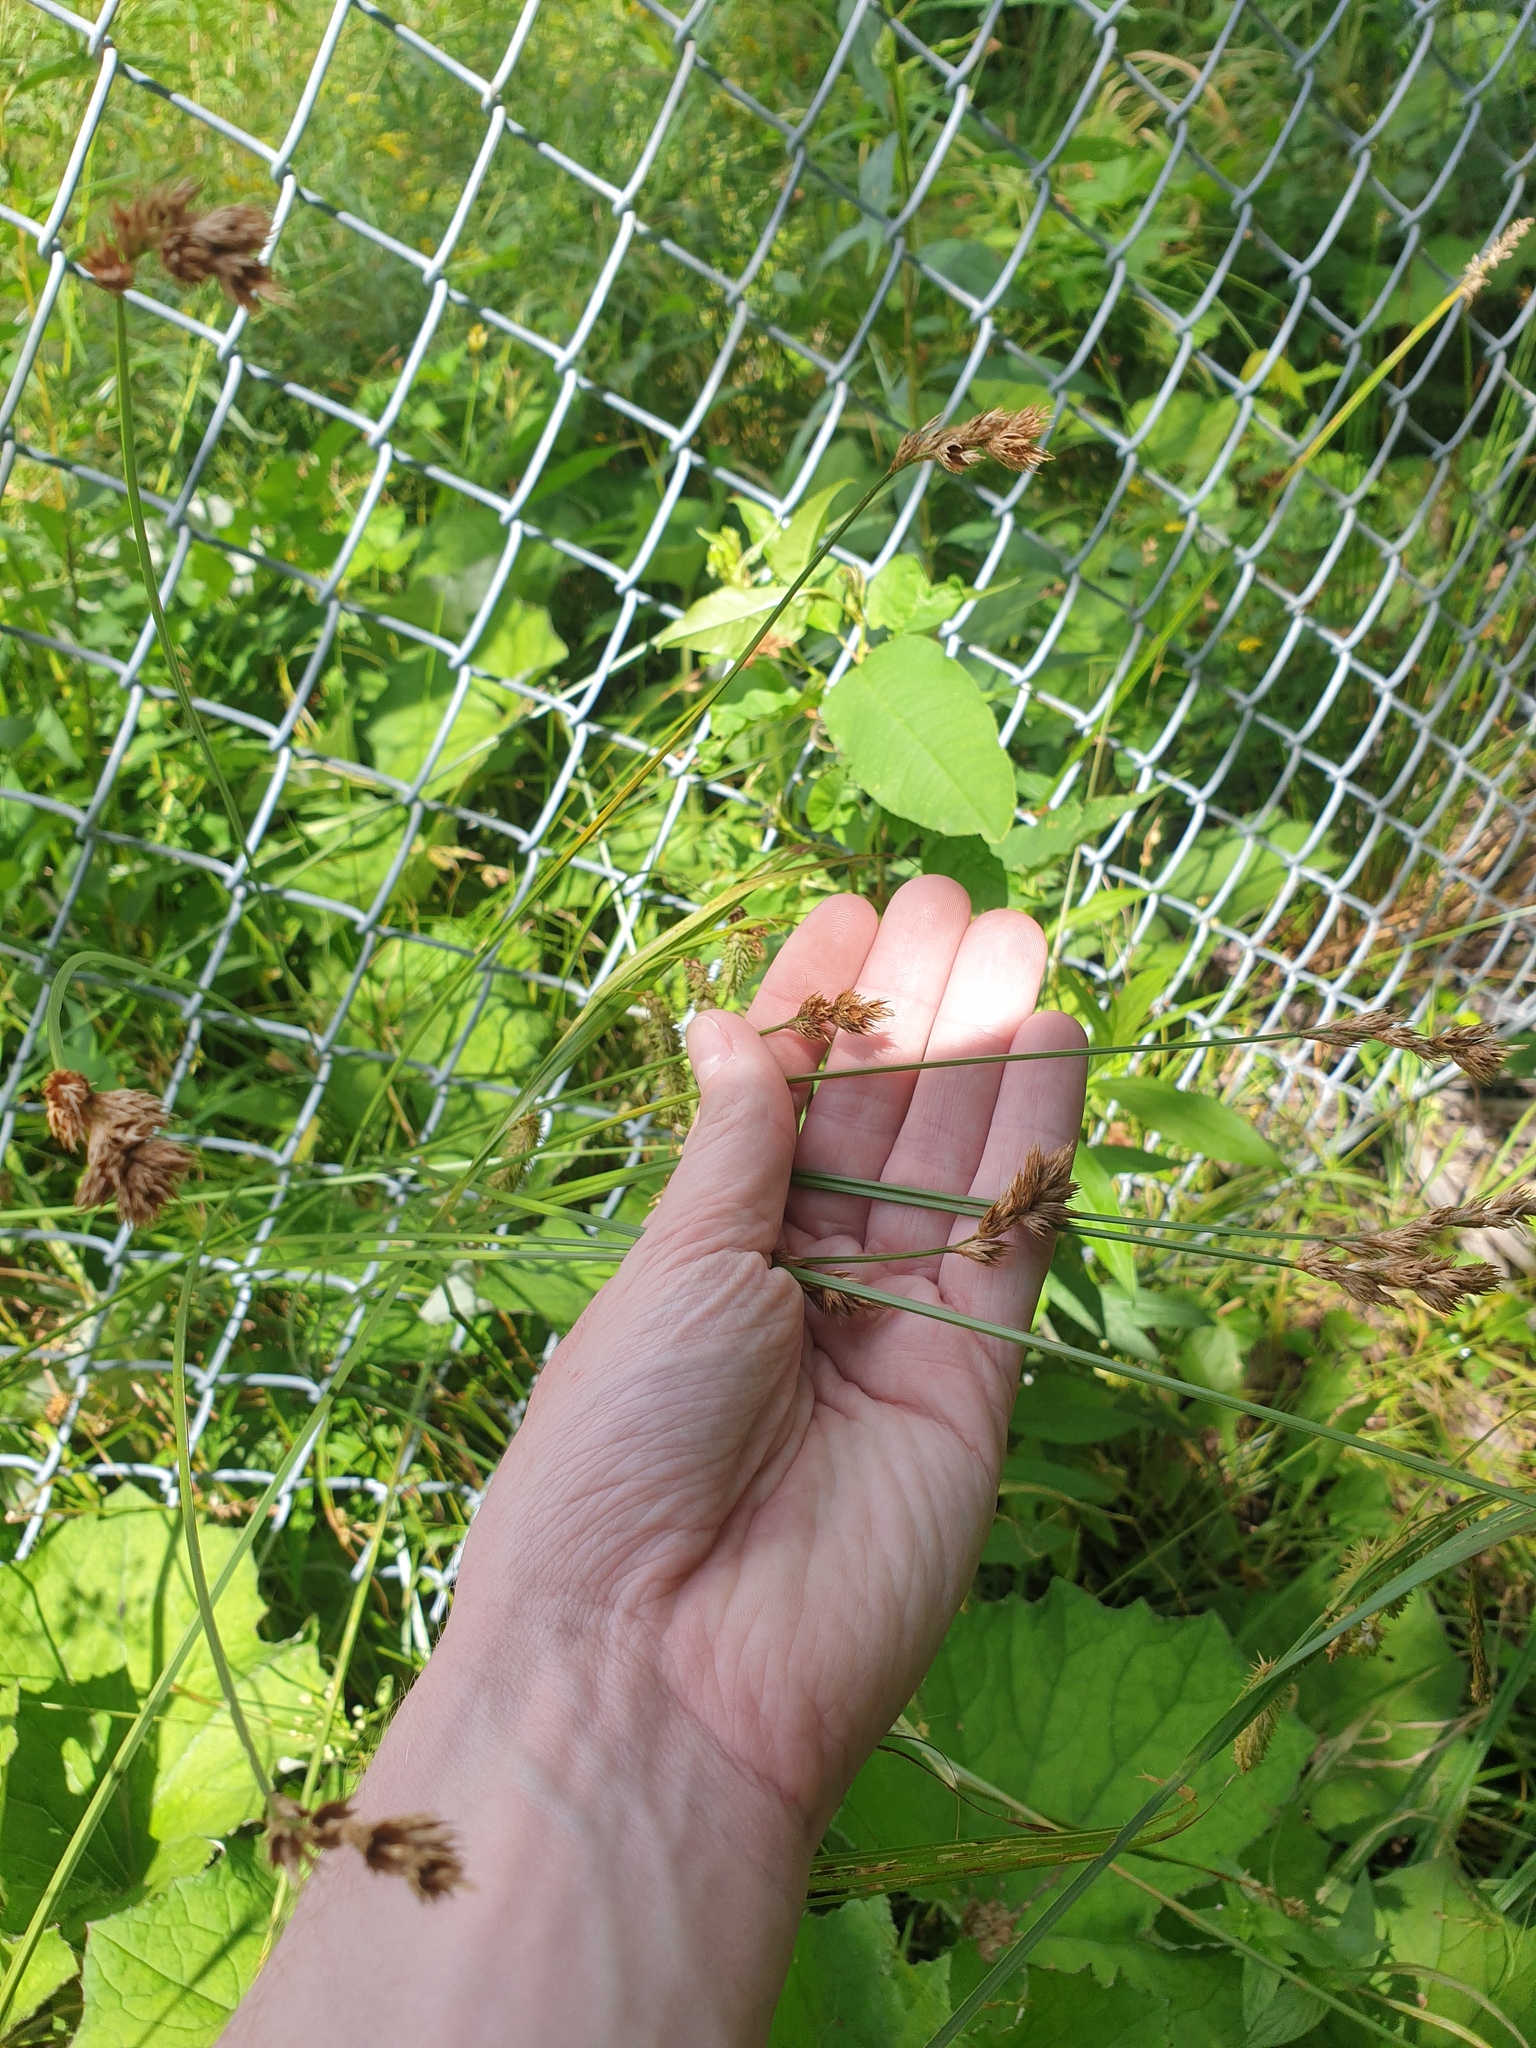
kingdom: Plantae
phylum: Tracheophyta
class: Liliopsida
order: Poales
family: Cyperaceae
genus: Carex
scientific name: Carex crawfordii
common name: Crawford's sedge
